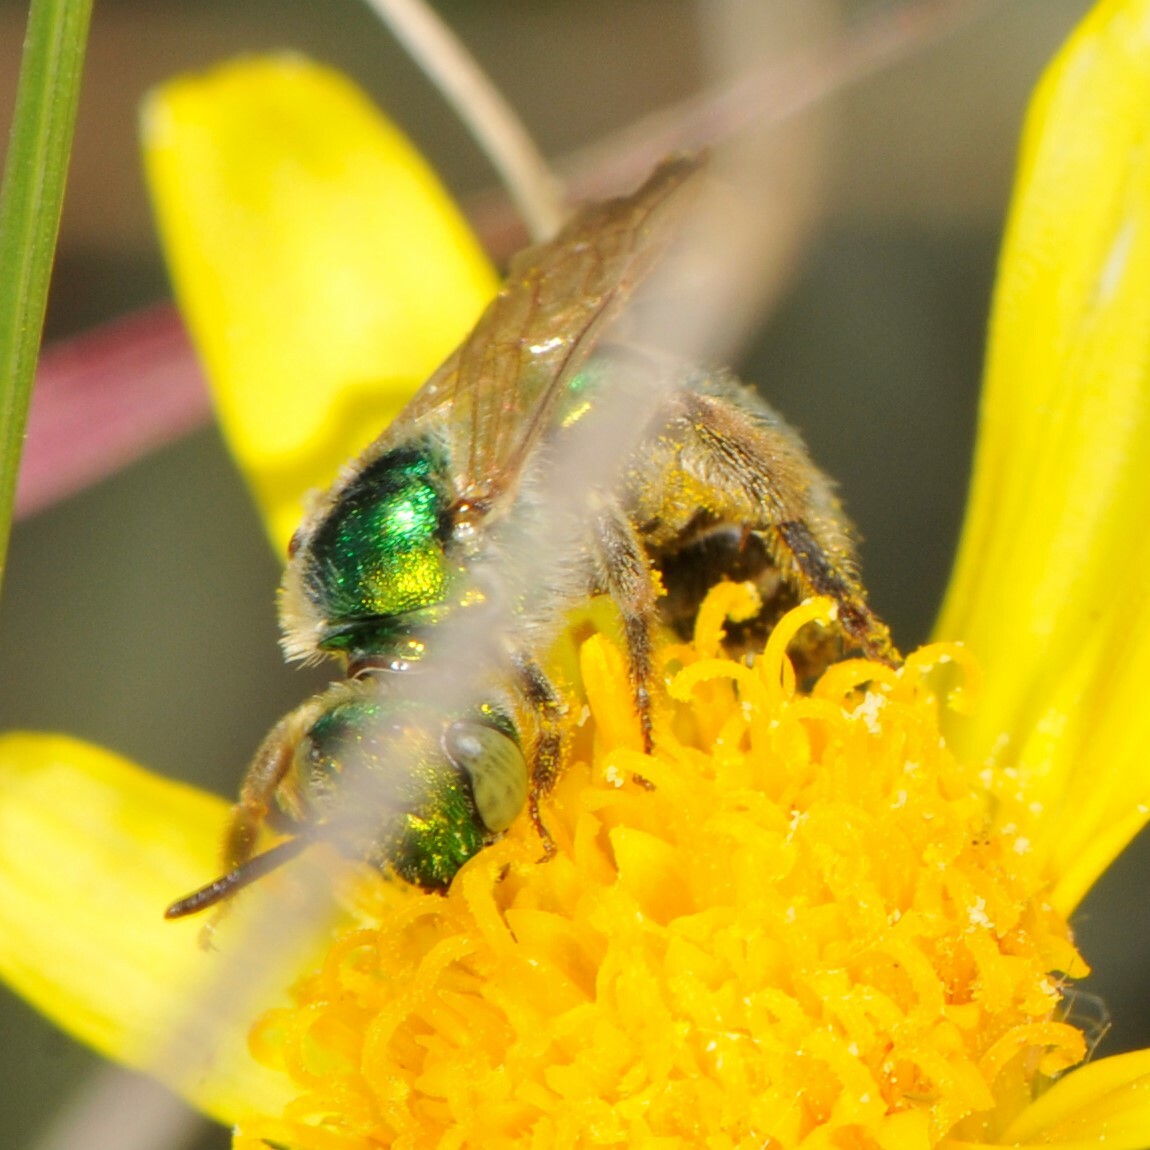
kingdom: Animalia
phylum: Arthropoda
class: Insecta
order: Hymenoptera
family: Halictidae
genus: Agapostemon
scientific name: Agapostemon
